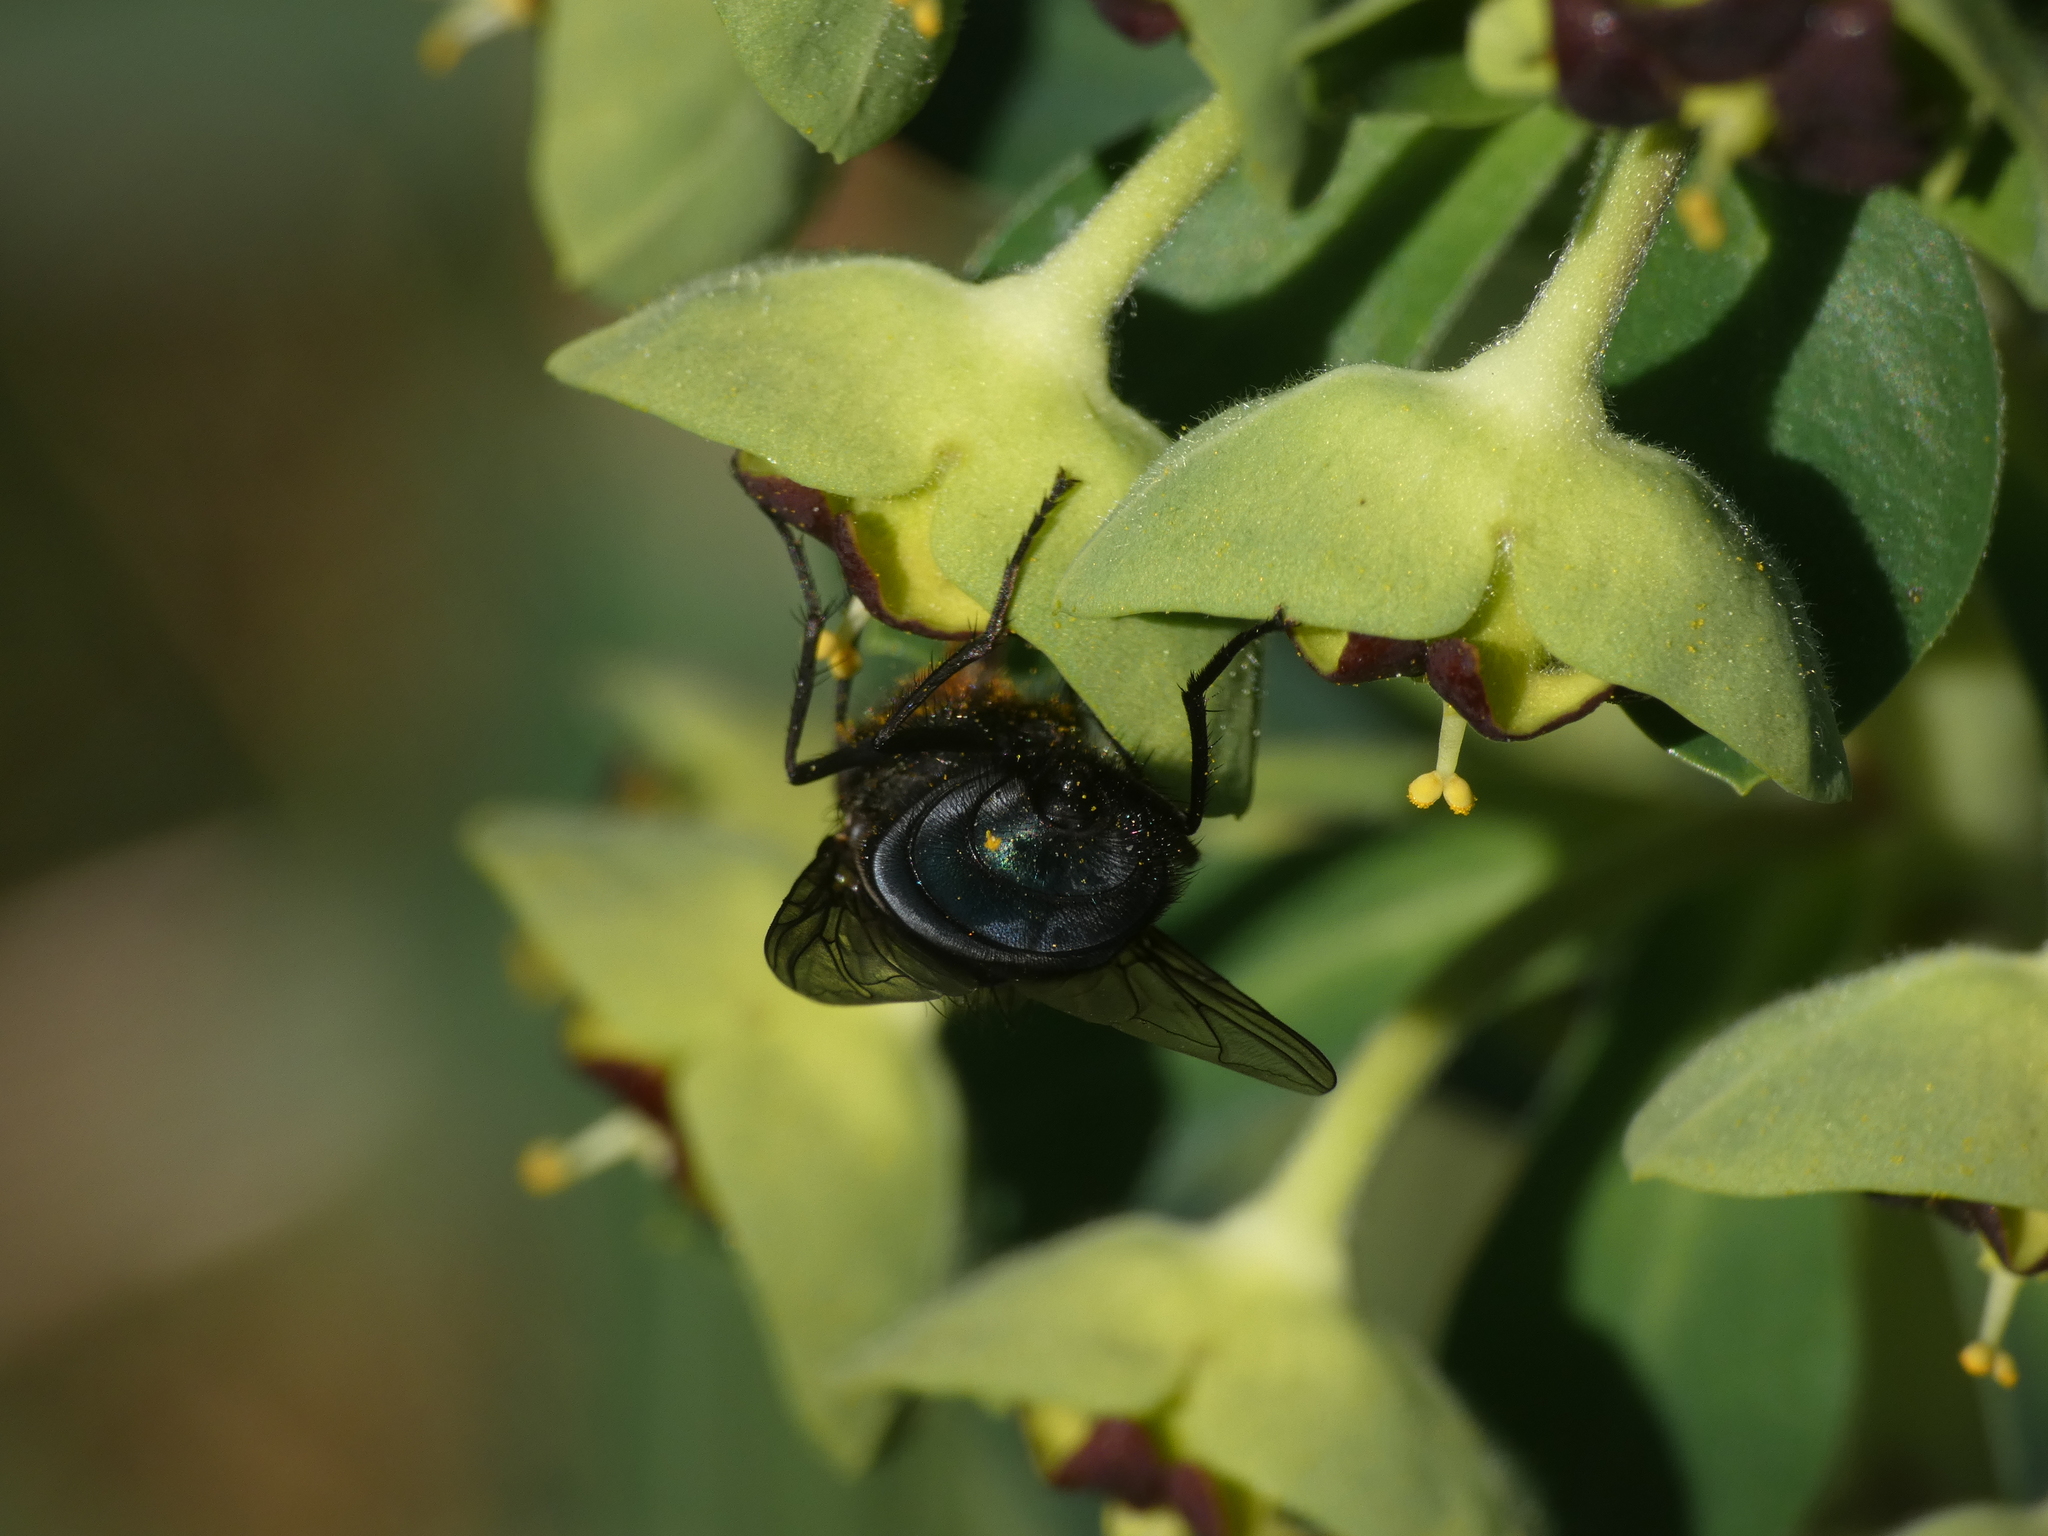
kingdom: Animalia
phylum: Arthropoda
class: Insecta
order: Diptera
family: Calliphoridae
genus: Calliphora
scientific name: Calliphora vomitoria
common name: Blue bottle fly
